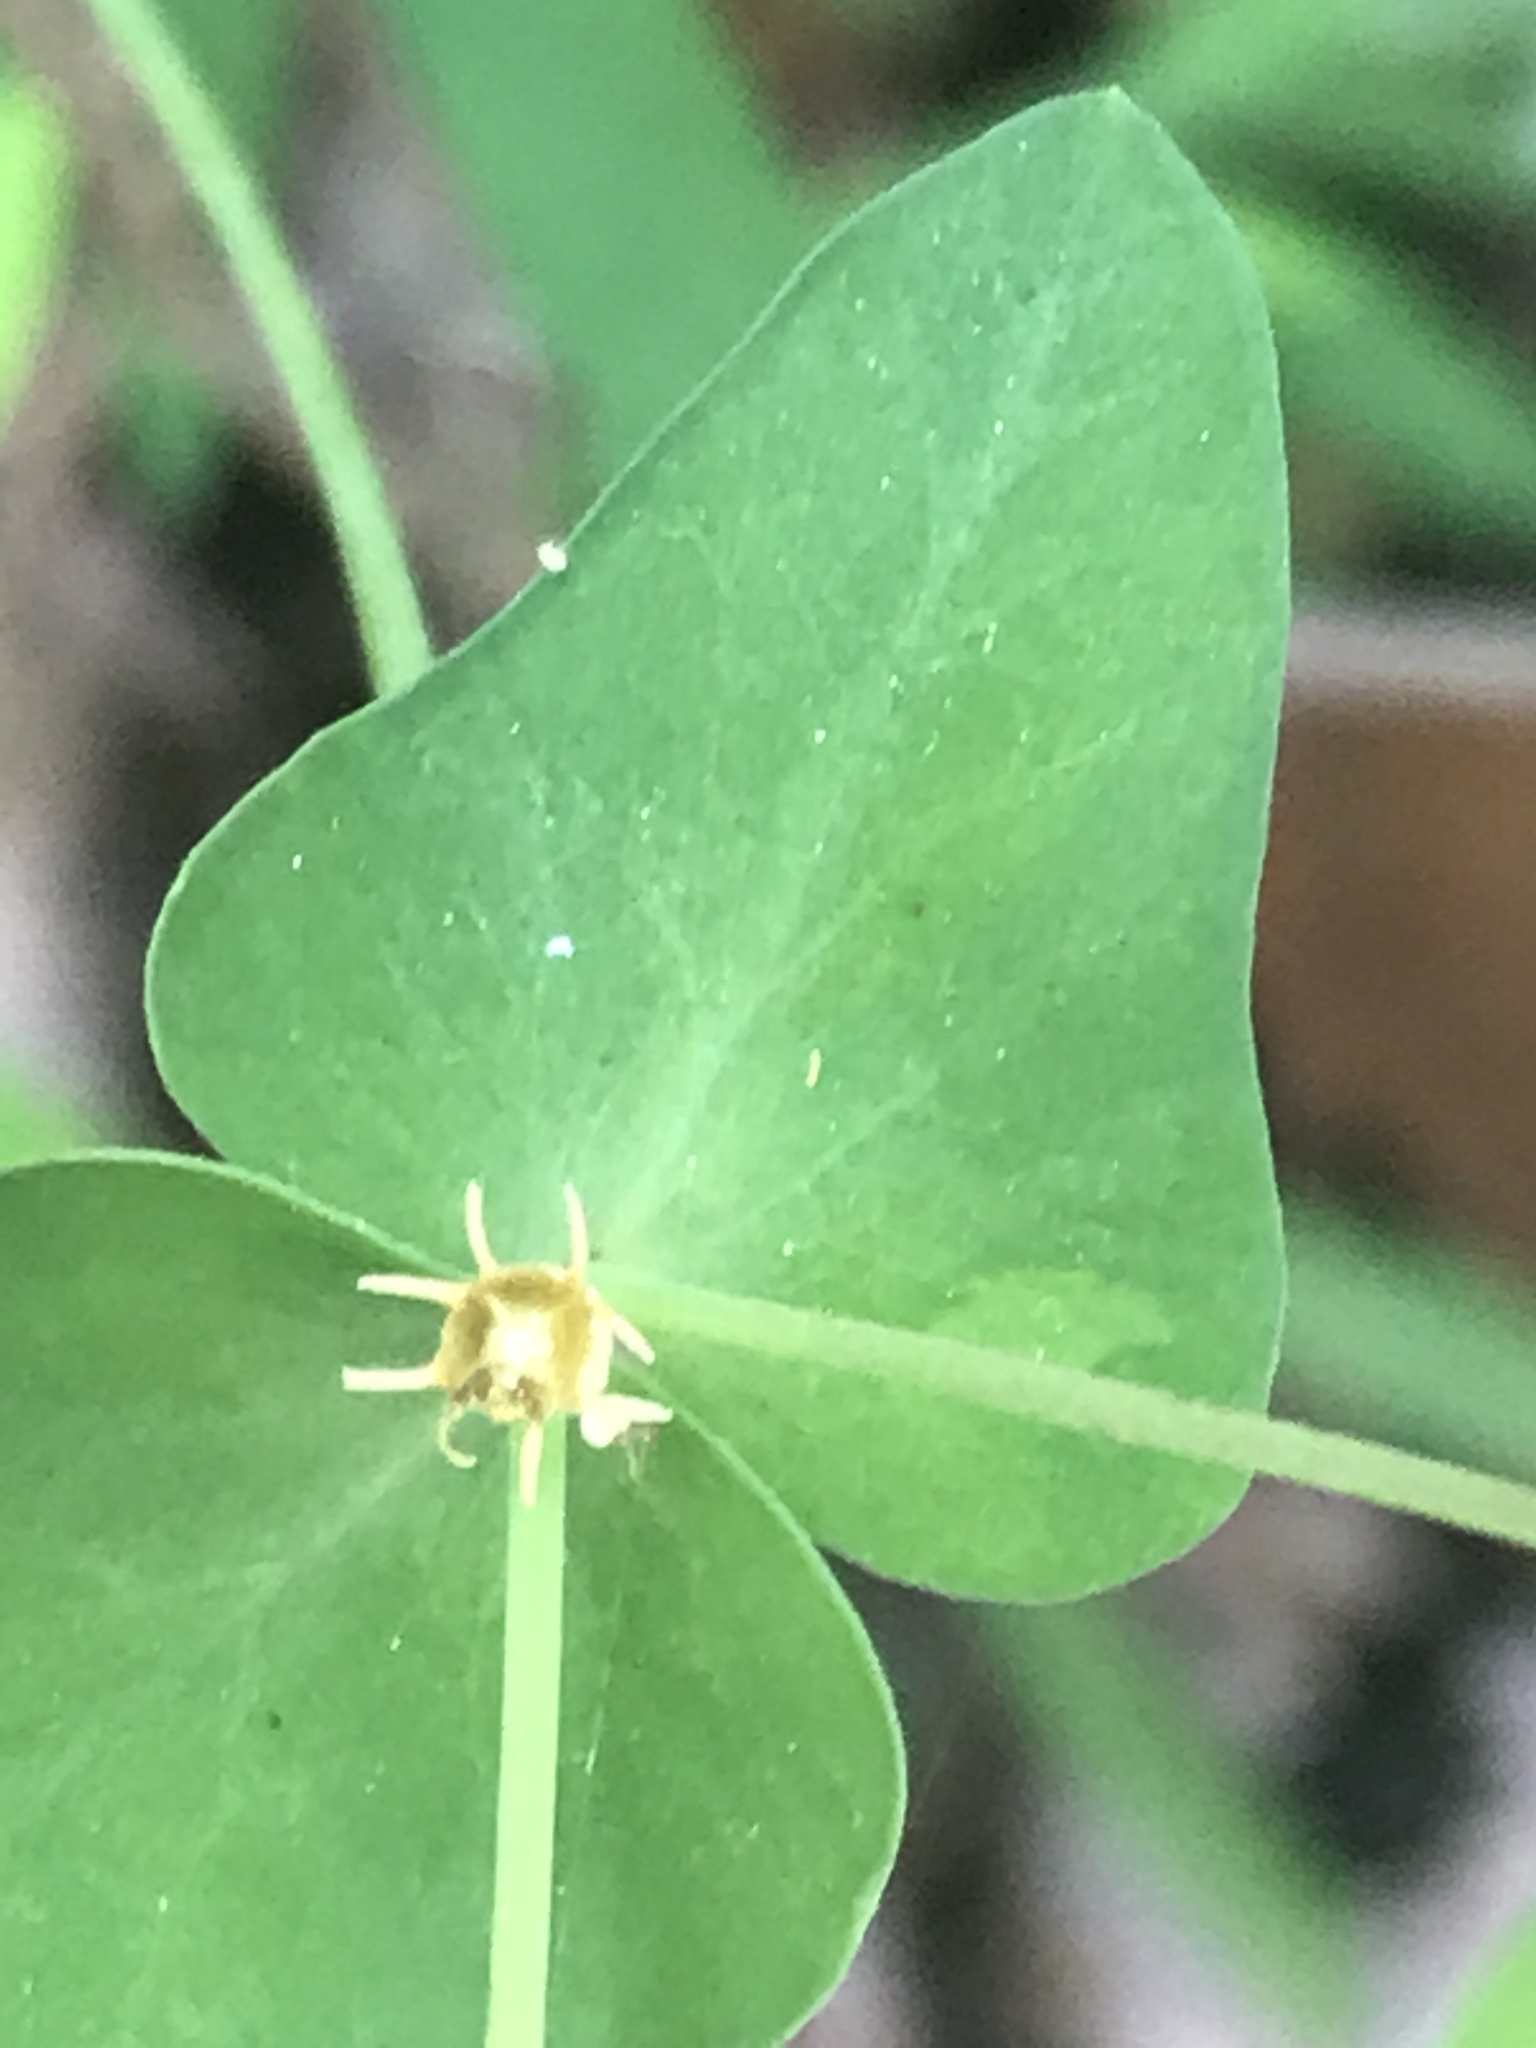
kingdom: Plantae
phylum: Tracheophyta
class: Magnoliopsida
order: Malpighiales
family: Euphorbiaceae
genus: Euphorbia
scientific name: Euphorbia greggii
